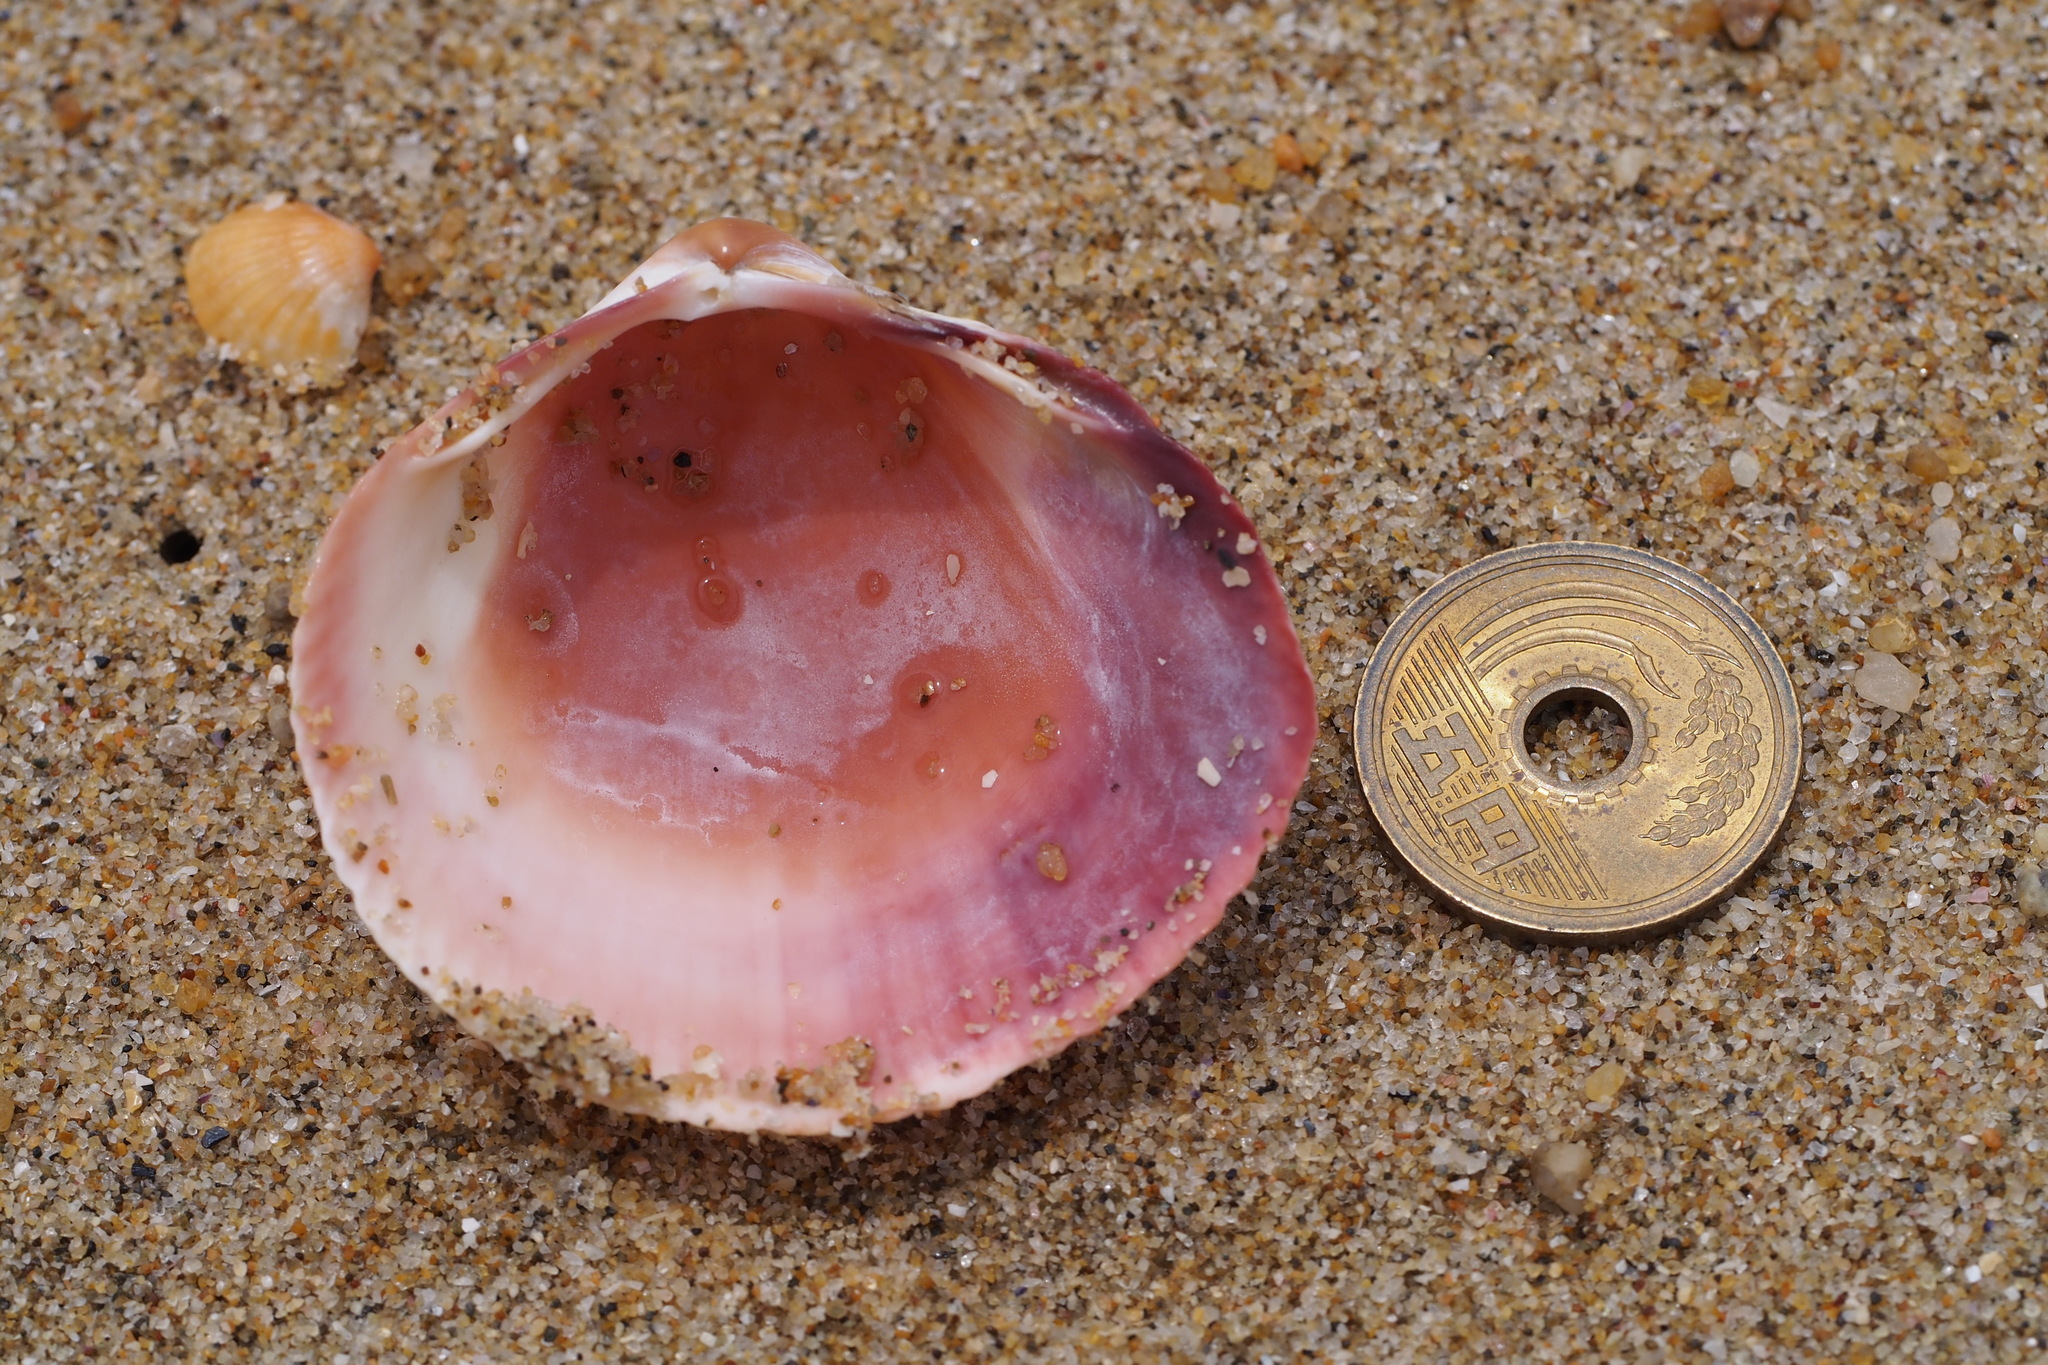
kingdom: Animalia
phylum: Mollusca
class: Bivalvia
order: Cardiida
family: Cardiidae
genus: Fulvia
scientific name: Fulvia mutica
